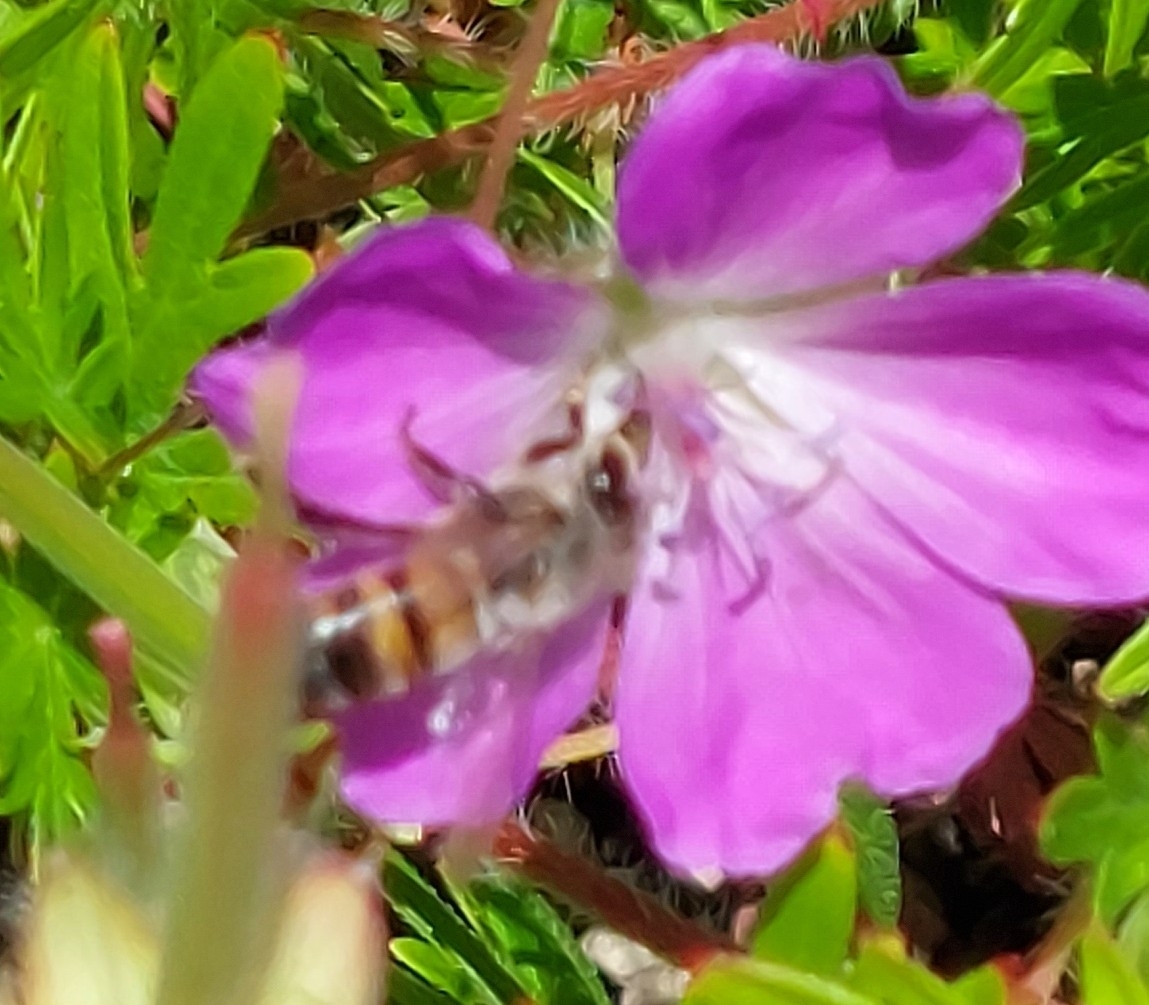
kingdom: Animalia
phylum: Arthropoda
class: Insecta
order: Hymenoptera
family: Apidae
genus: Apis
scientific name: Apis mellifera
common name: Honey bee
